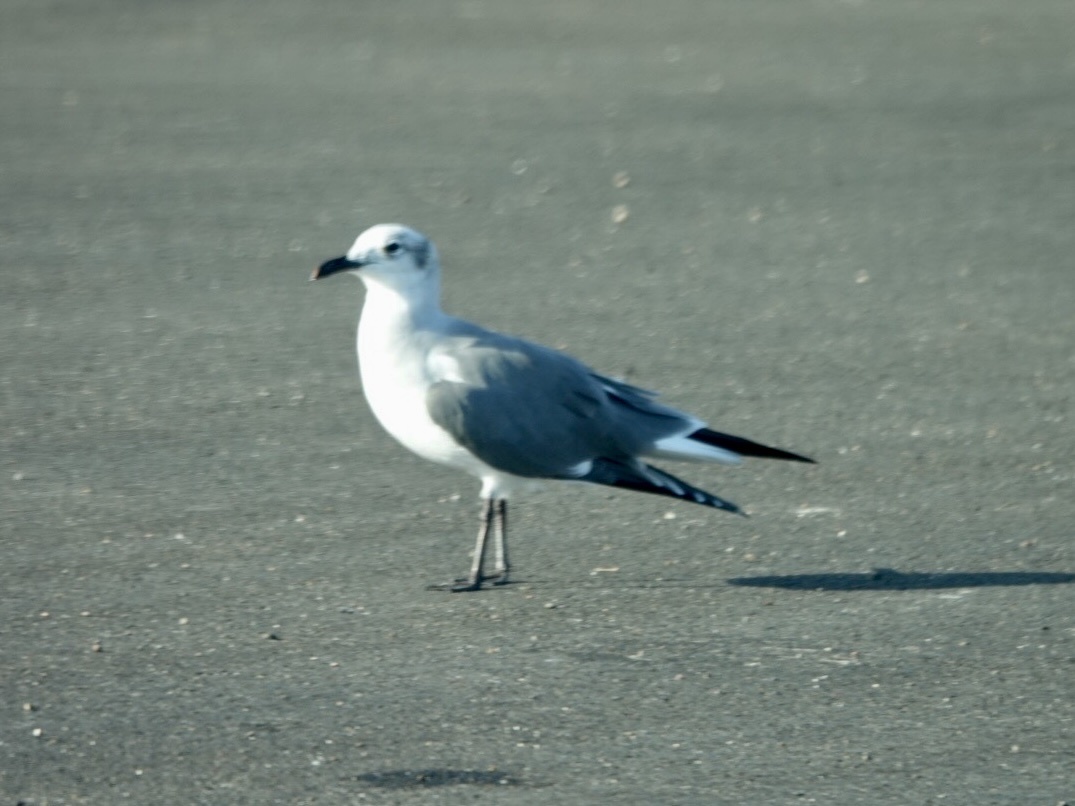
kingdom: Animalia
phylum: Chordata
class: Aves
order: Charadriiformes
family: Laridae
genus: Leucophaeus
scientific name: Leucophaeus atricilla
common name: Laughing gull
